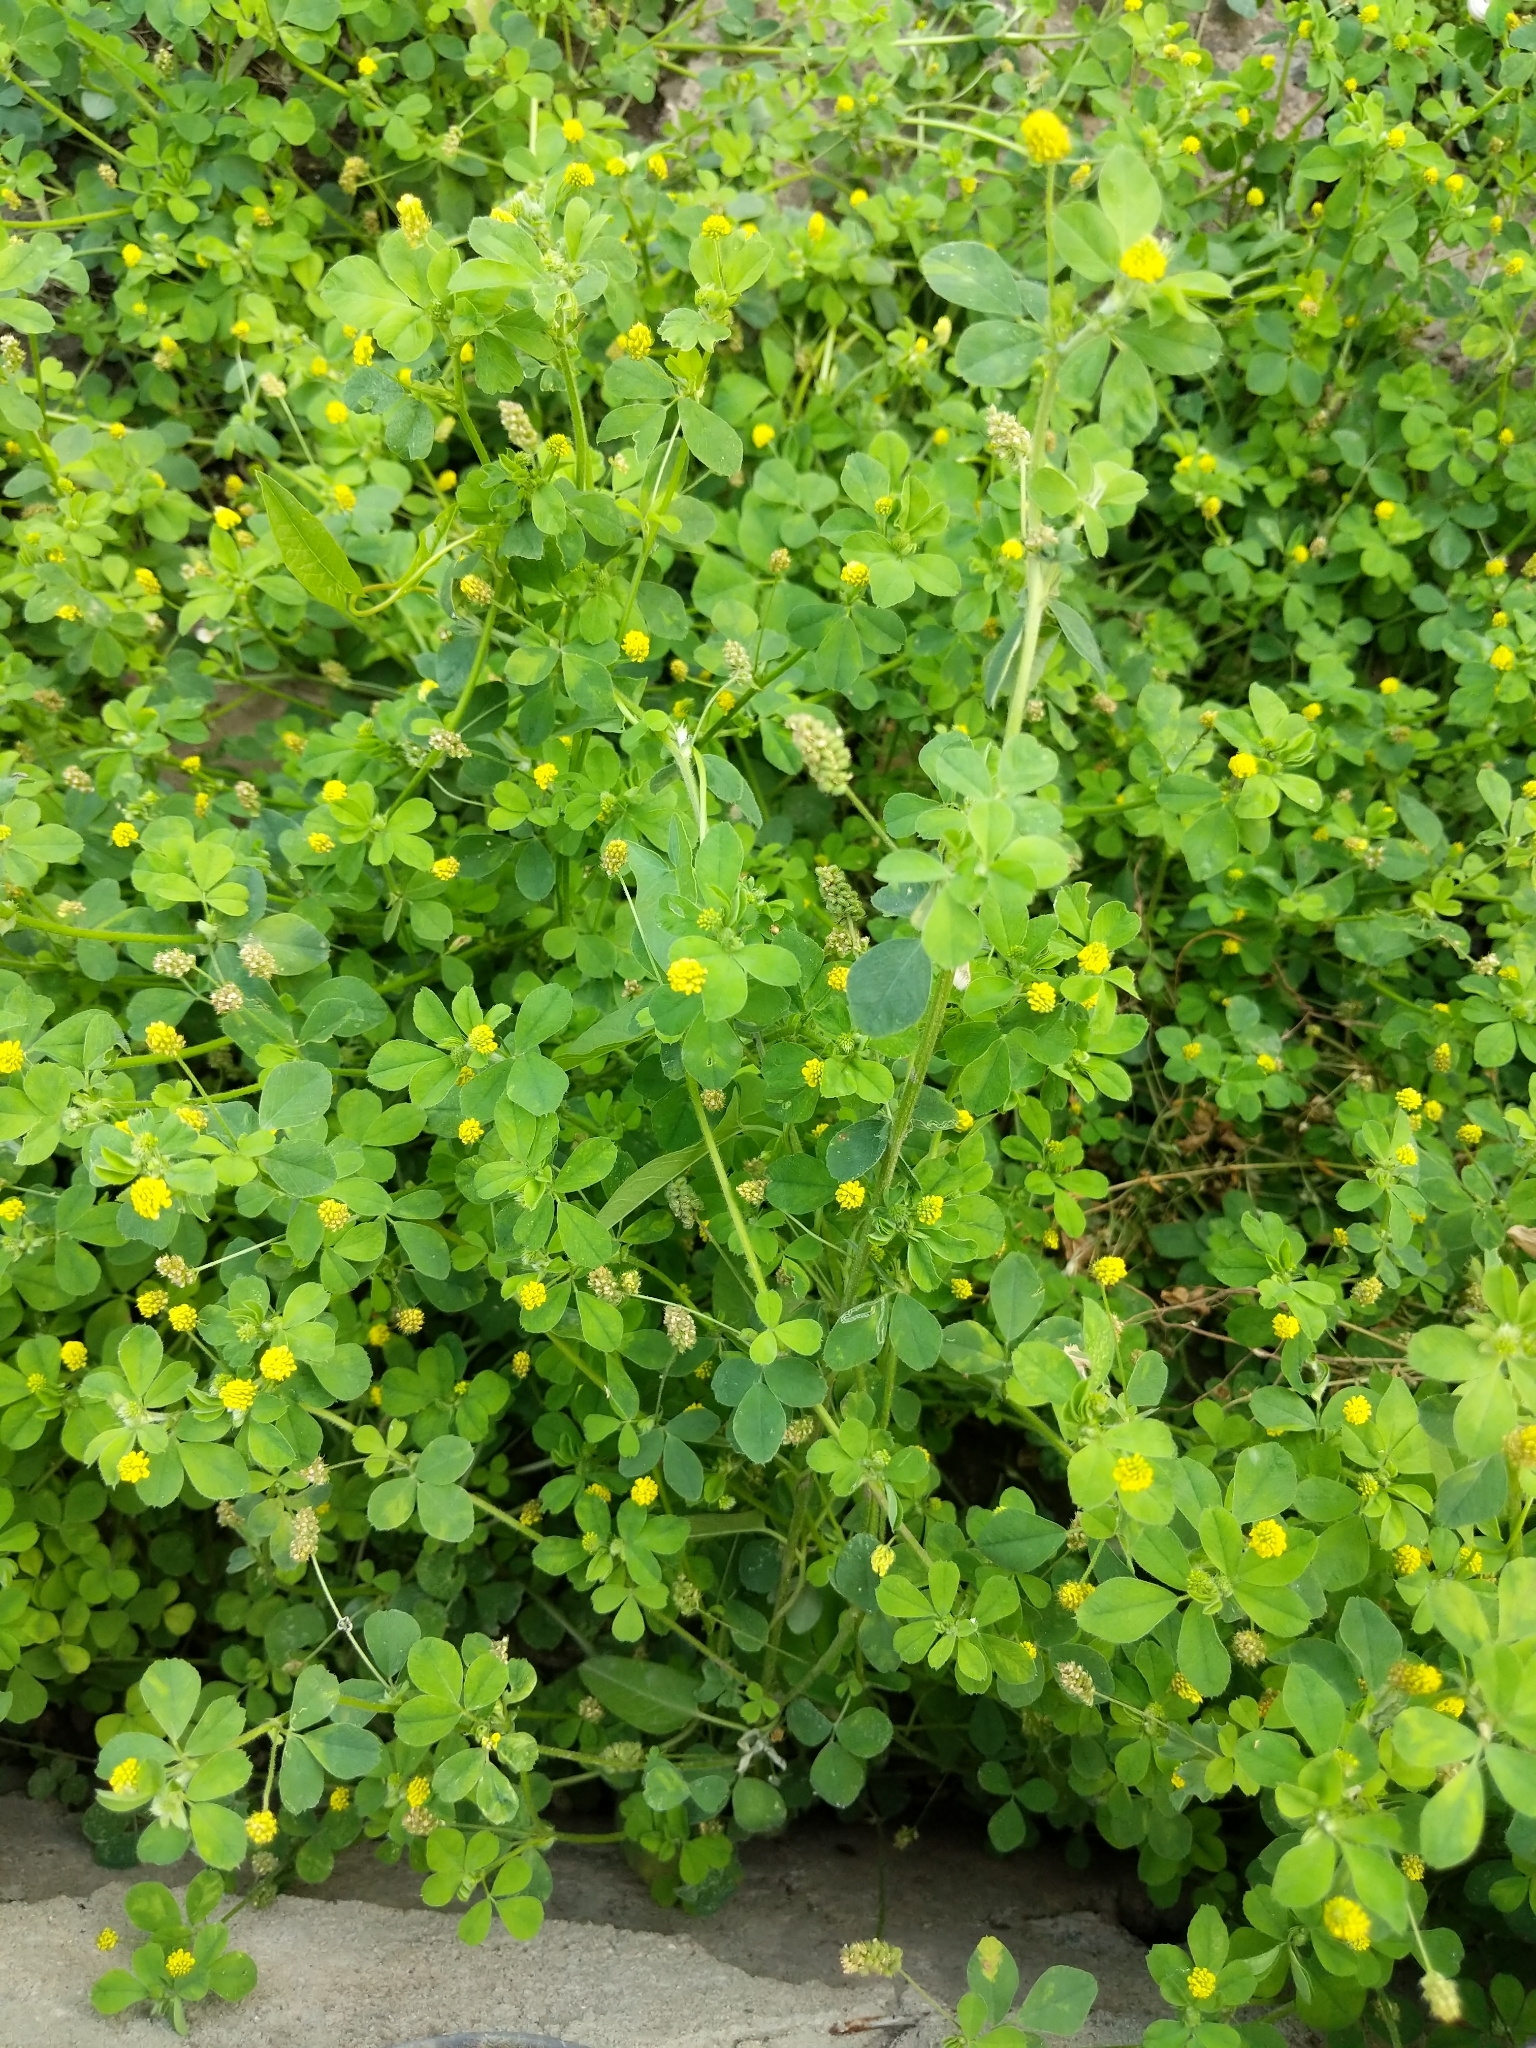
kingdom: Plantae
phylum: Tracheophyta
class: Magnoliopsida
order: Fabales
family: Fabaceae
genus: Medicago
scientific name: Medicago lupulina
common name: Black medick
